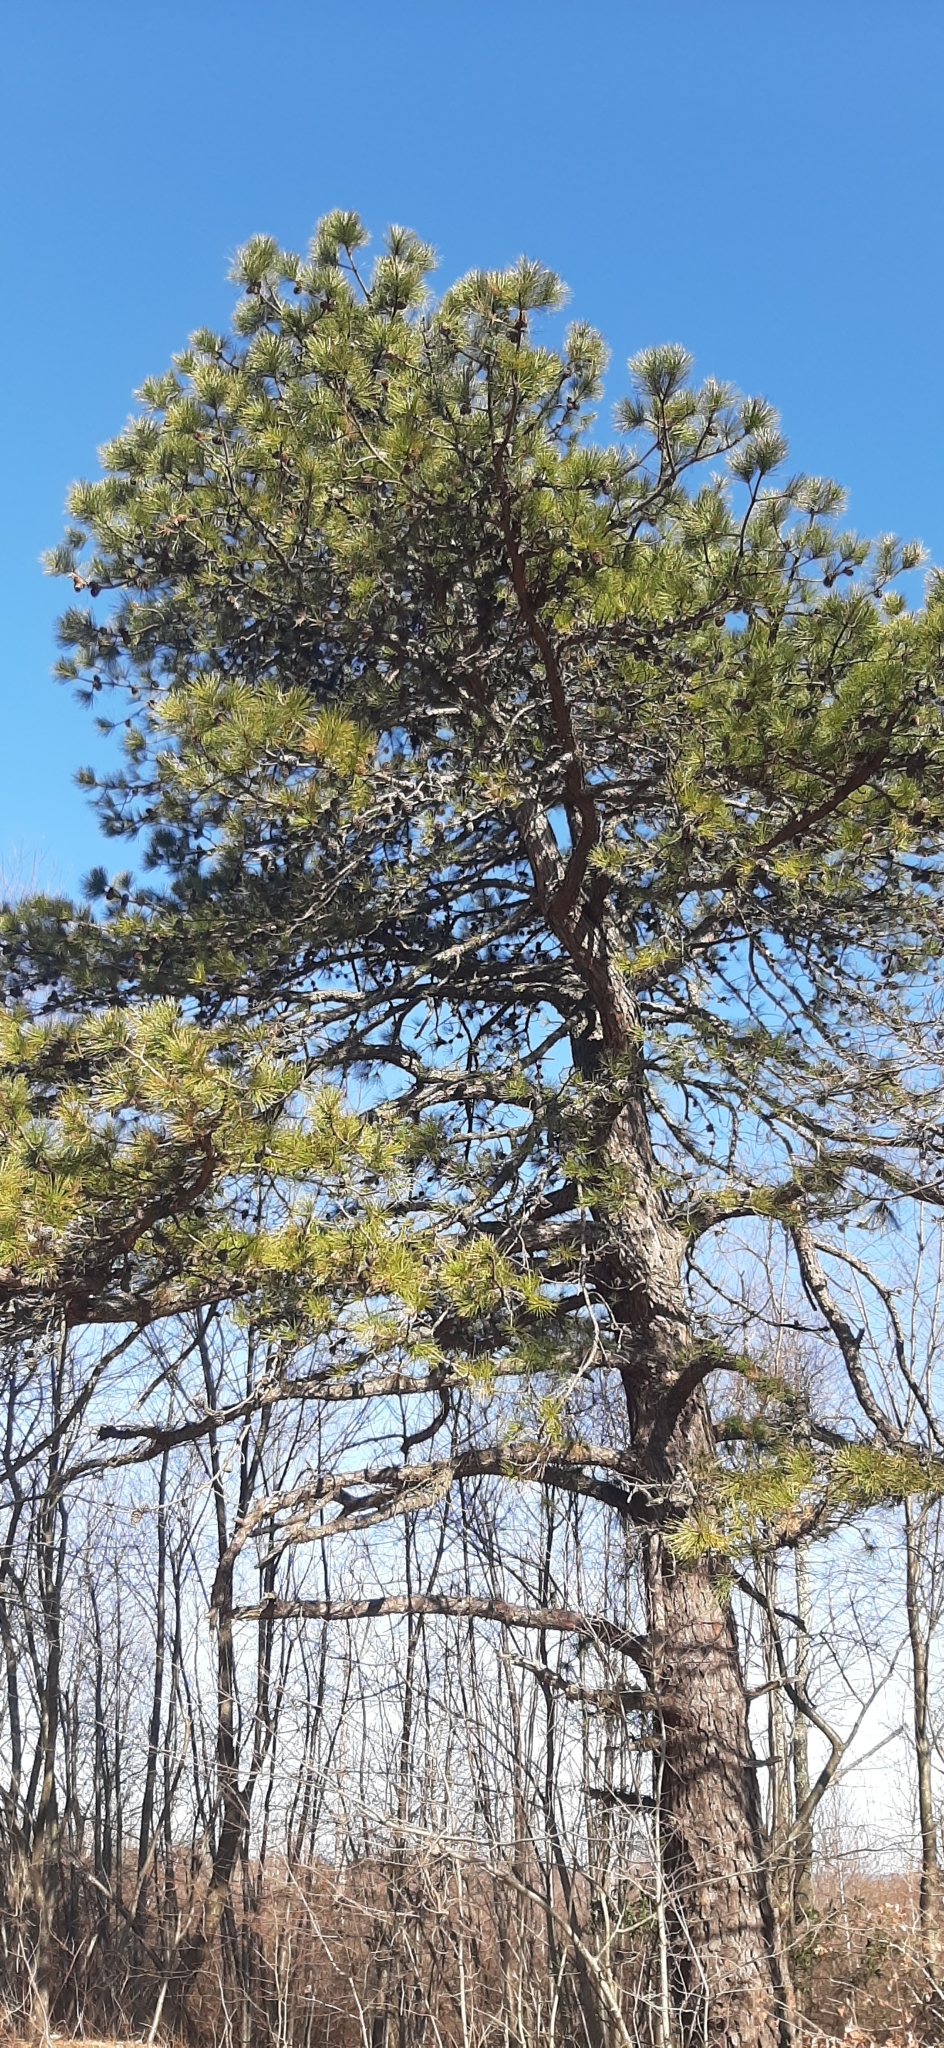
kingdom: Plantae
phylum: Tracheophyta
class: Pinopsida
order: Pinales
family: Pinaceae
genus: Pinus
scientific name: Pinus rigida
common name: Pitch pine
